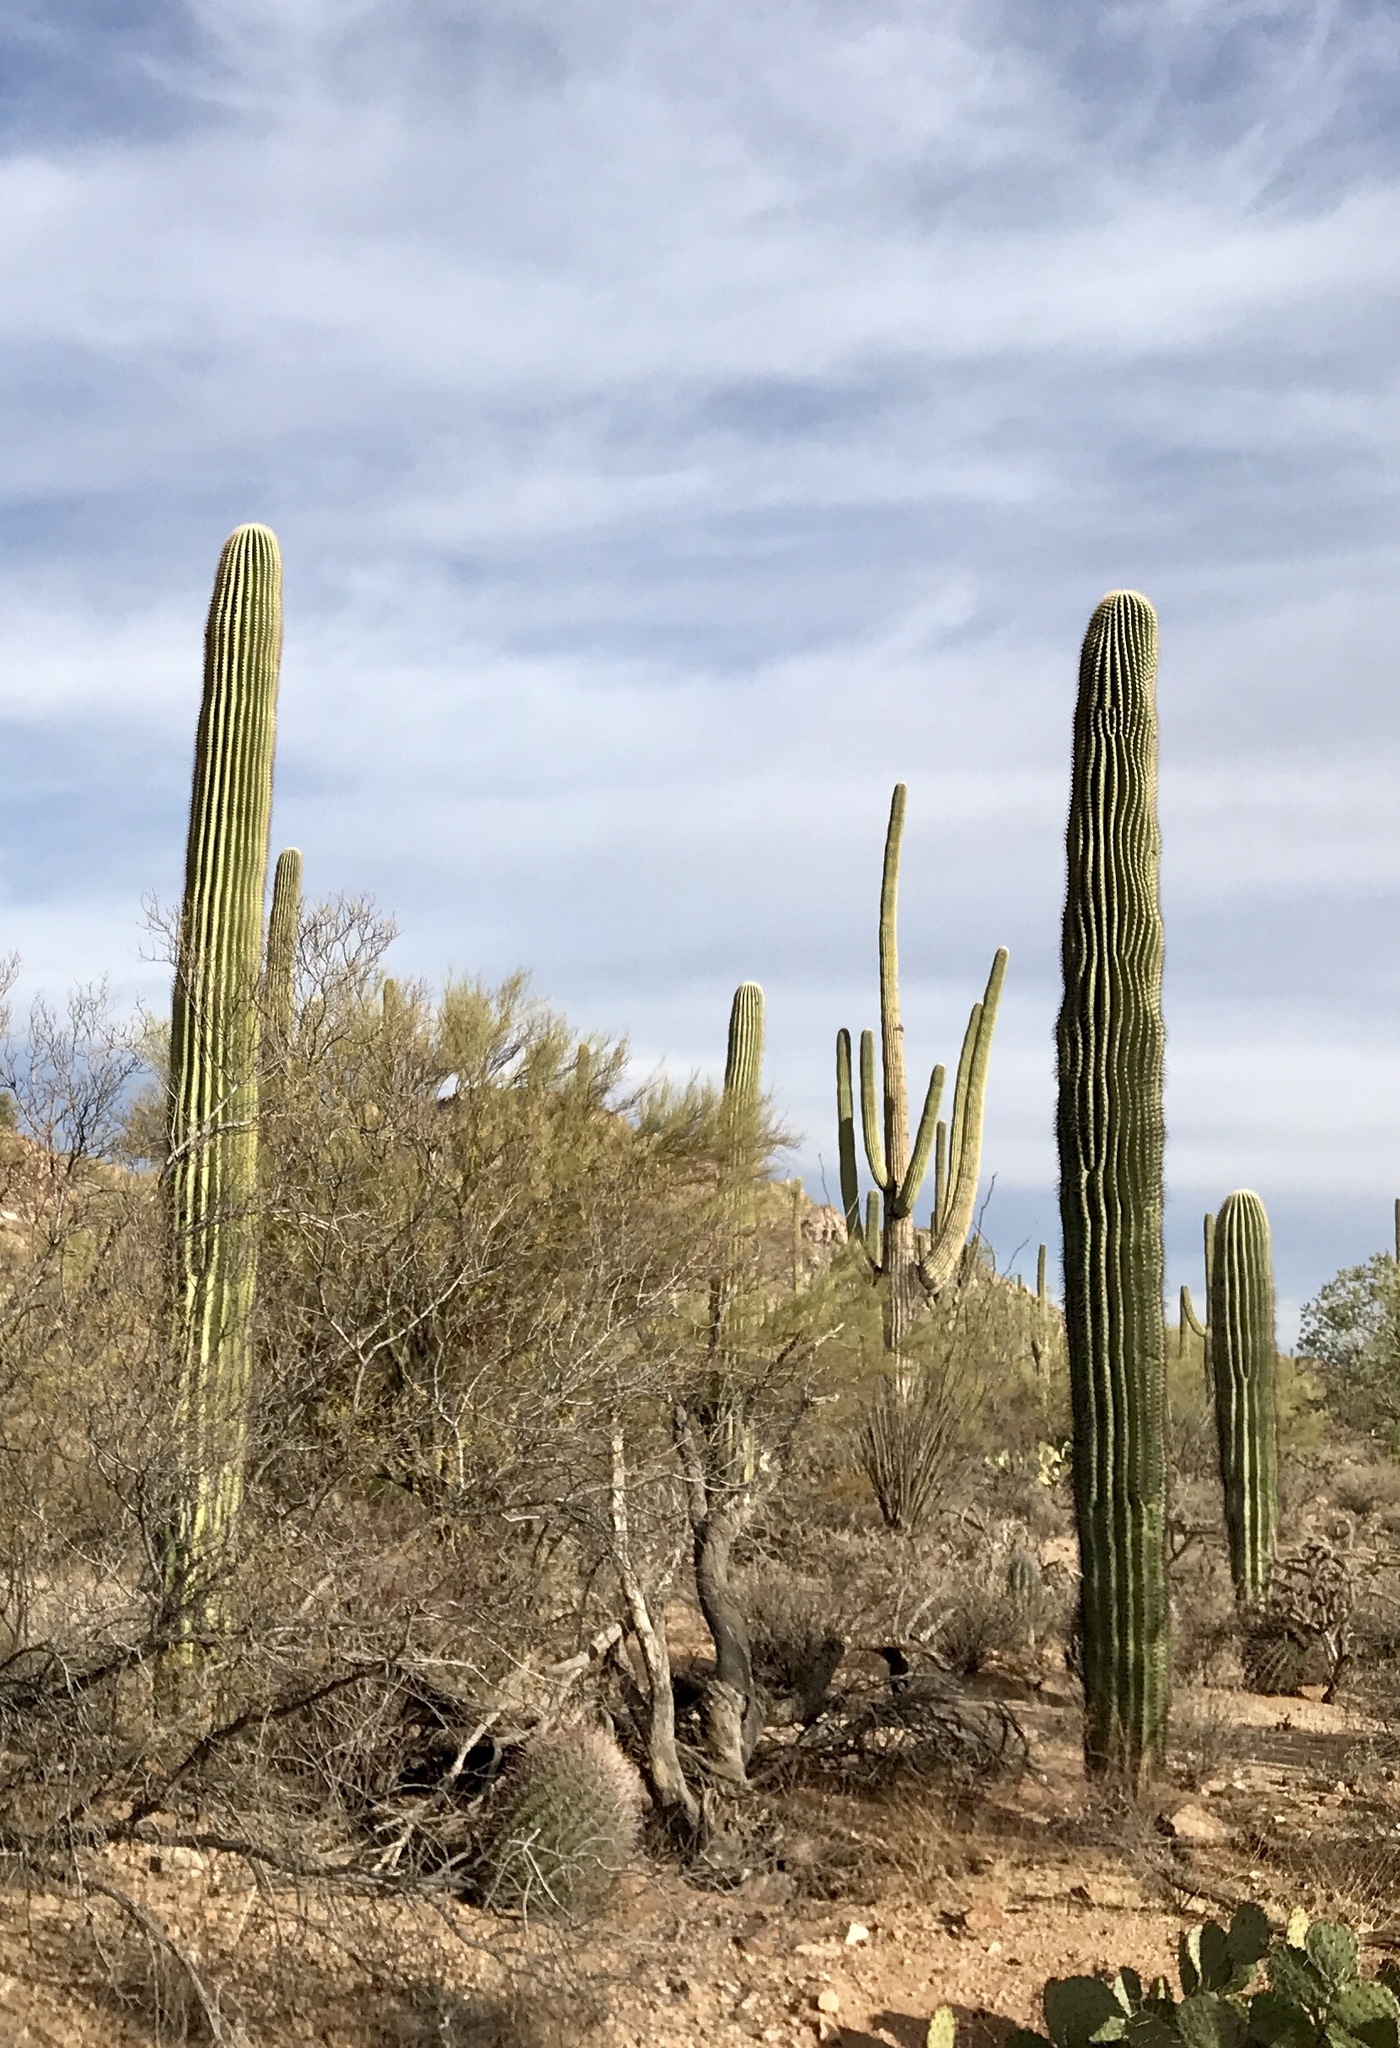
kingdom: Plantae
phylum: Tracheophyta
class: Magnoliopsida
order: Caryophyllales
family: Cactaceae
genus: Carnegiea
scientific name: Carnegiea gigantea
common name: Saguaro
